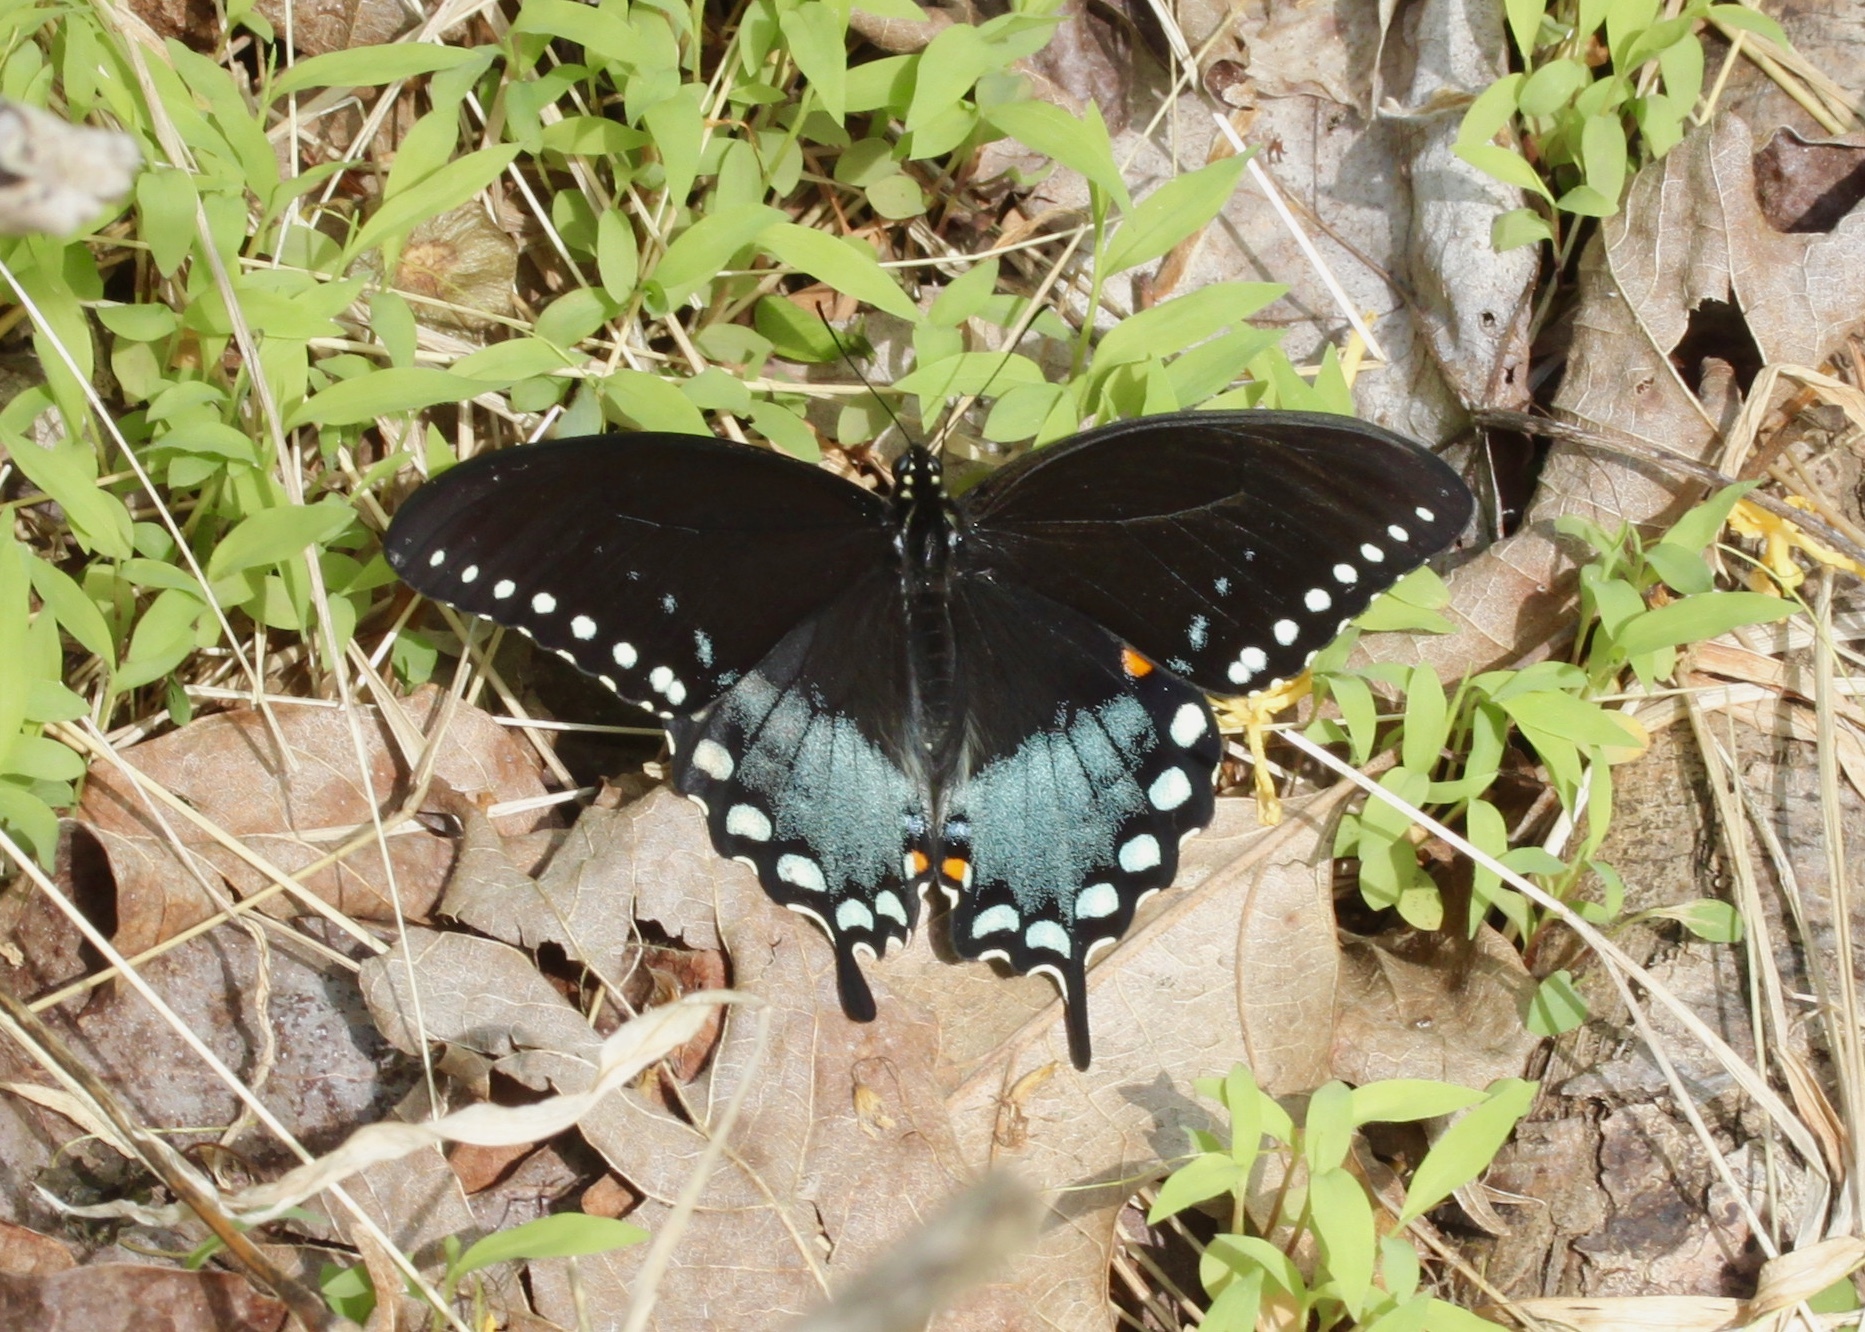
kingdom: Animalia
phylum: Arthropoda
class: Insecta
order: Lepidoptera
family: Papilionidae
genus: Papilio
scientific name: Papilio troilus
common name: Spicebush swallowtail
